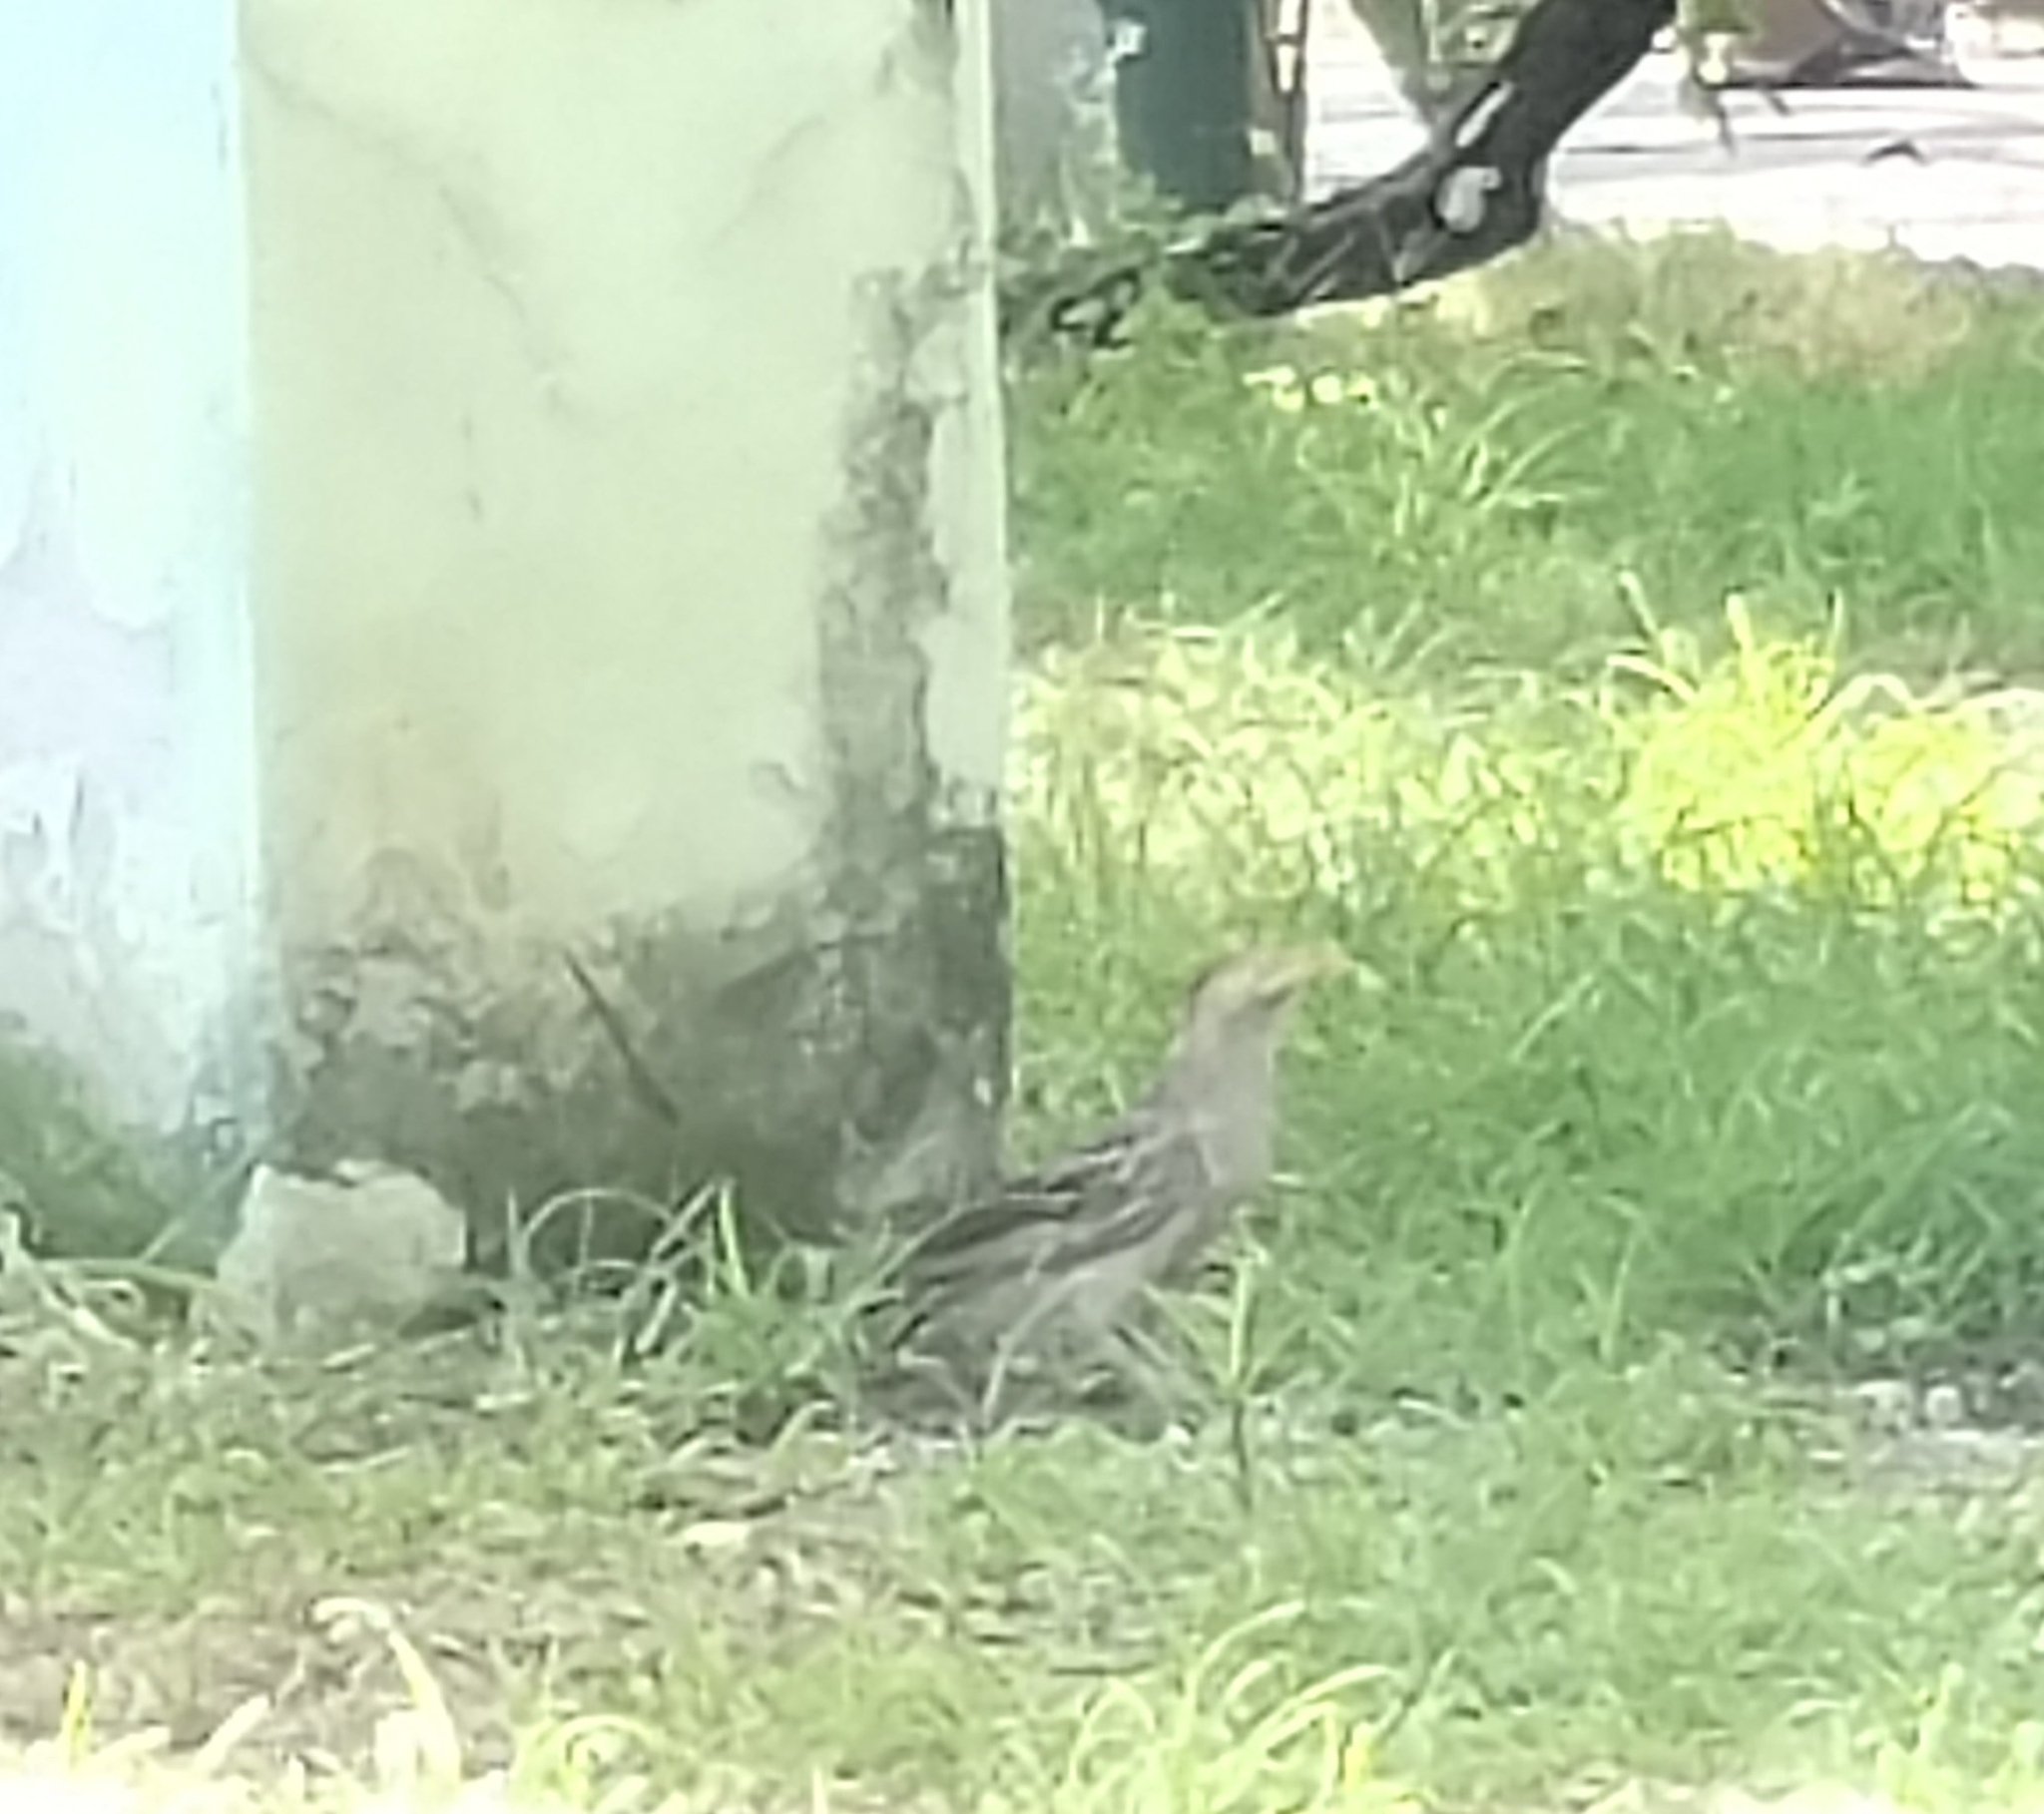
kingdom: Animalia
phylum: Chordata
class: Aves
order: Cuculiformes
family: Cuculidae
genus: Guira
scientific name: Guira guira
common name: Guira cuckoo
